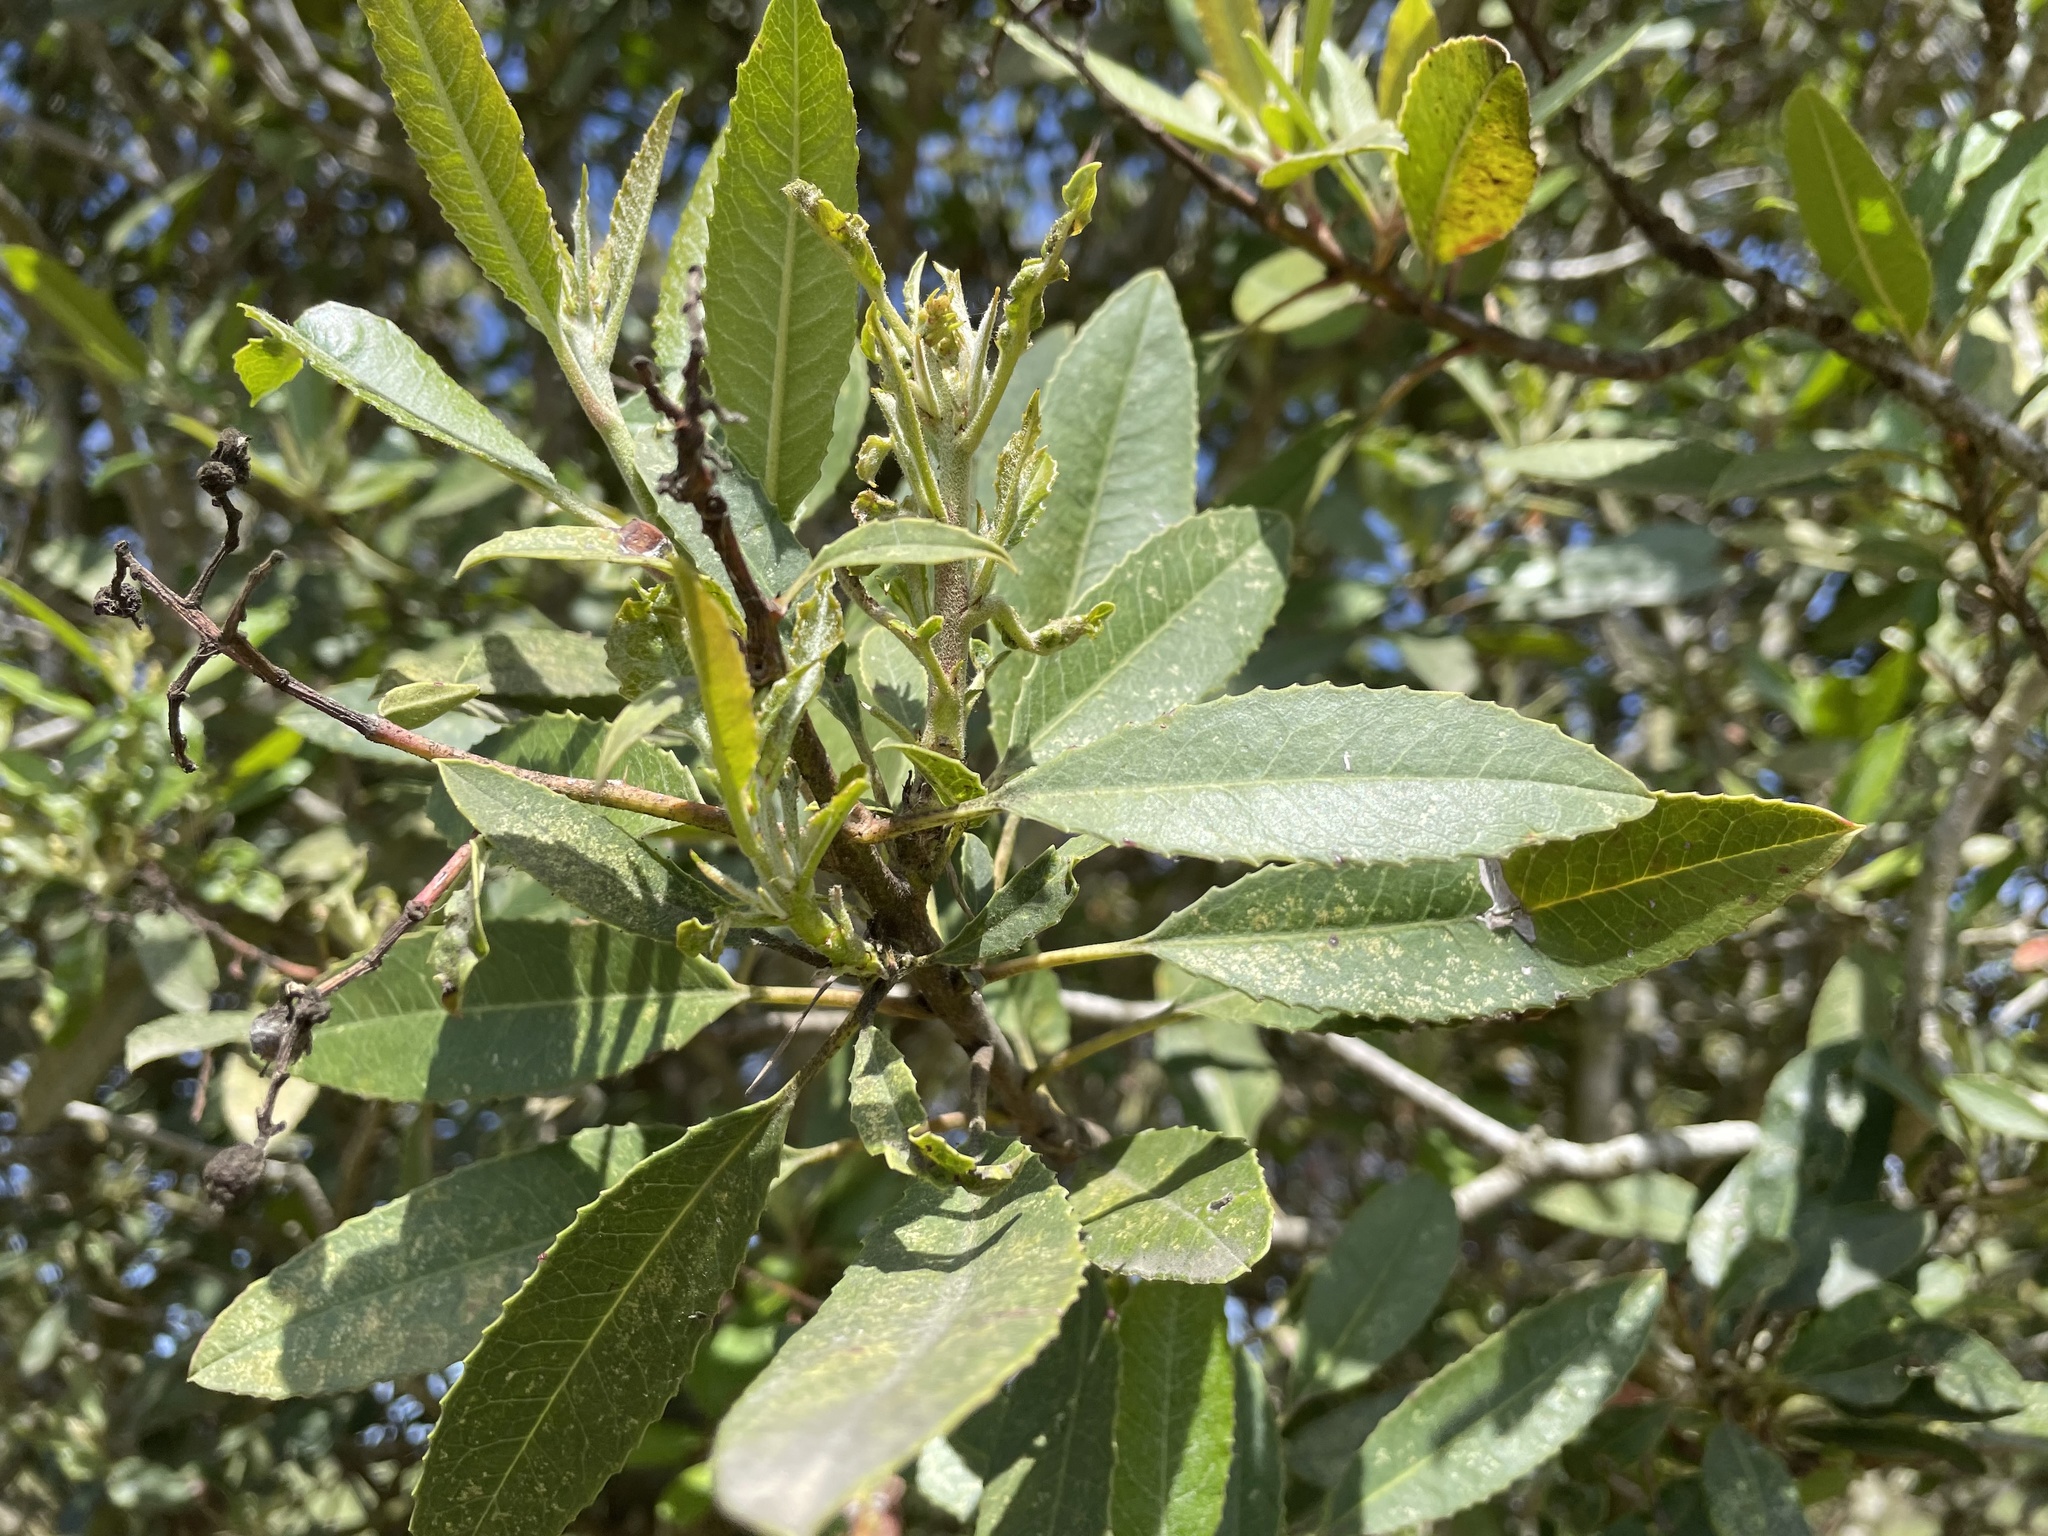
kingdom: Plantae
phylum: Tracheophyta
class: Magnoliopsida
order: Rosales
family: Rosaceae
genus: Heteromeles
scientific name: Heteromeles arbutifolia
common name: California-holly
